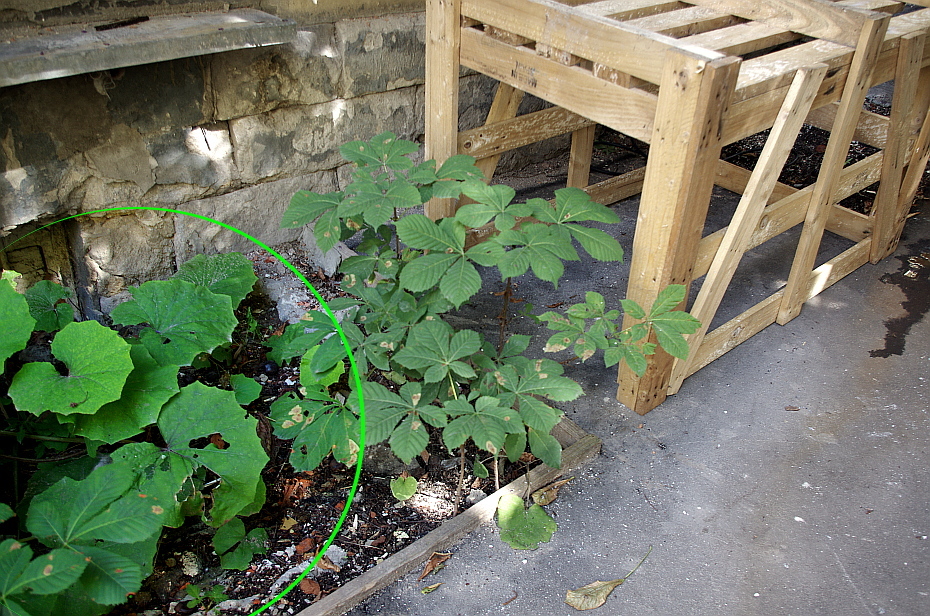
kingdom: Plantae
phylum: Tracheophyta
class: Magnoliopsida
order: Asterales
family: Asteraceae
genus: Tussilago
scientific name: Tussilago farfara
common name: Coltsfoot
